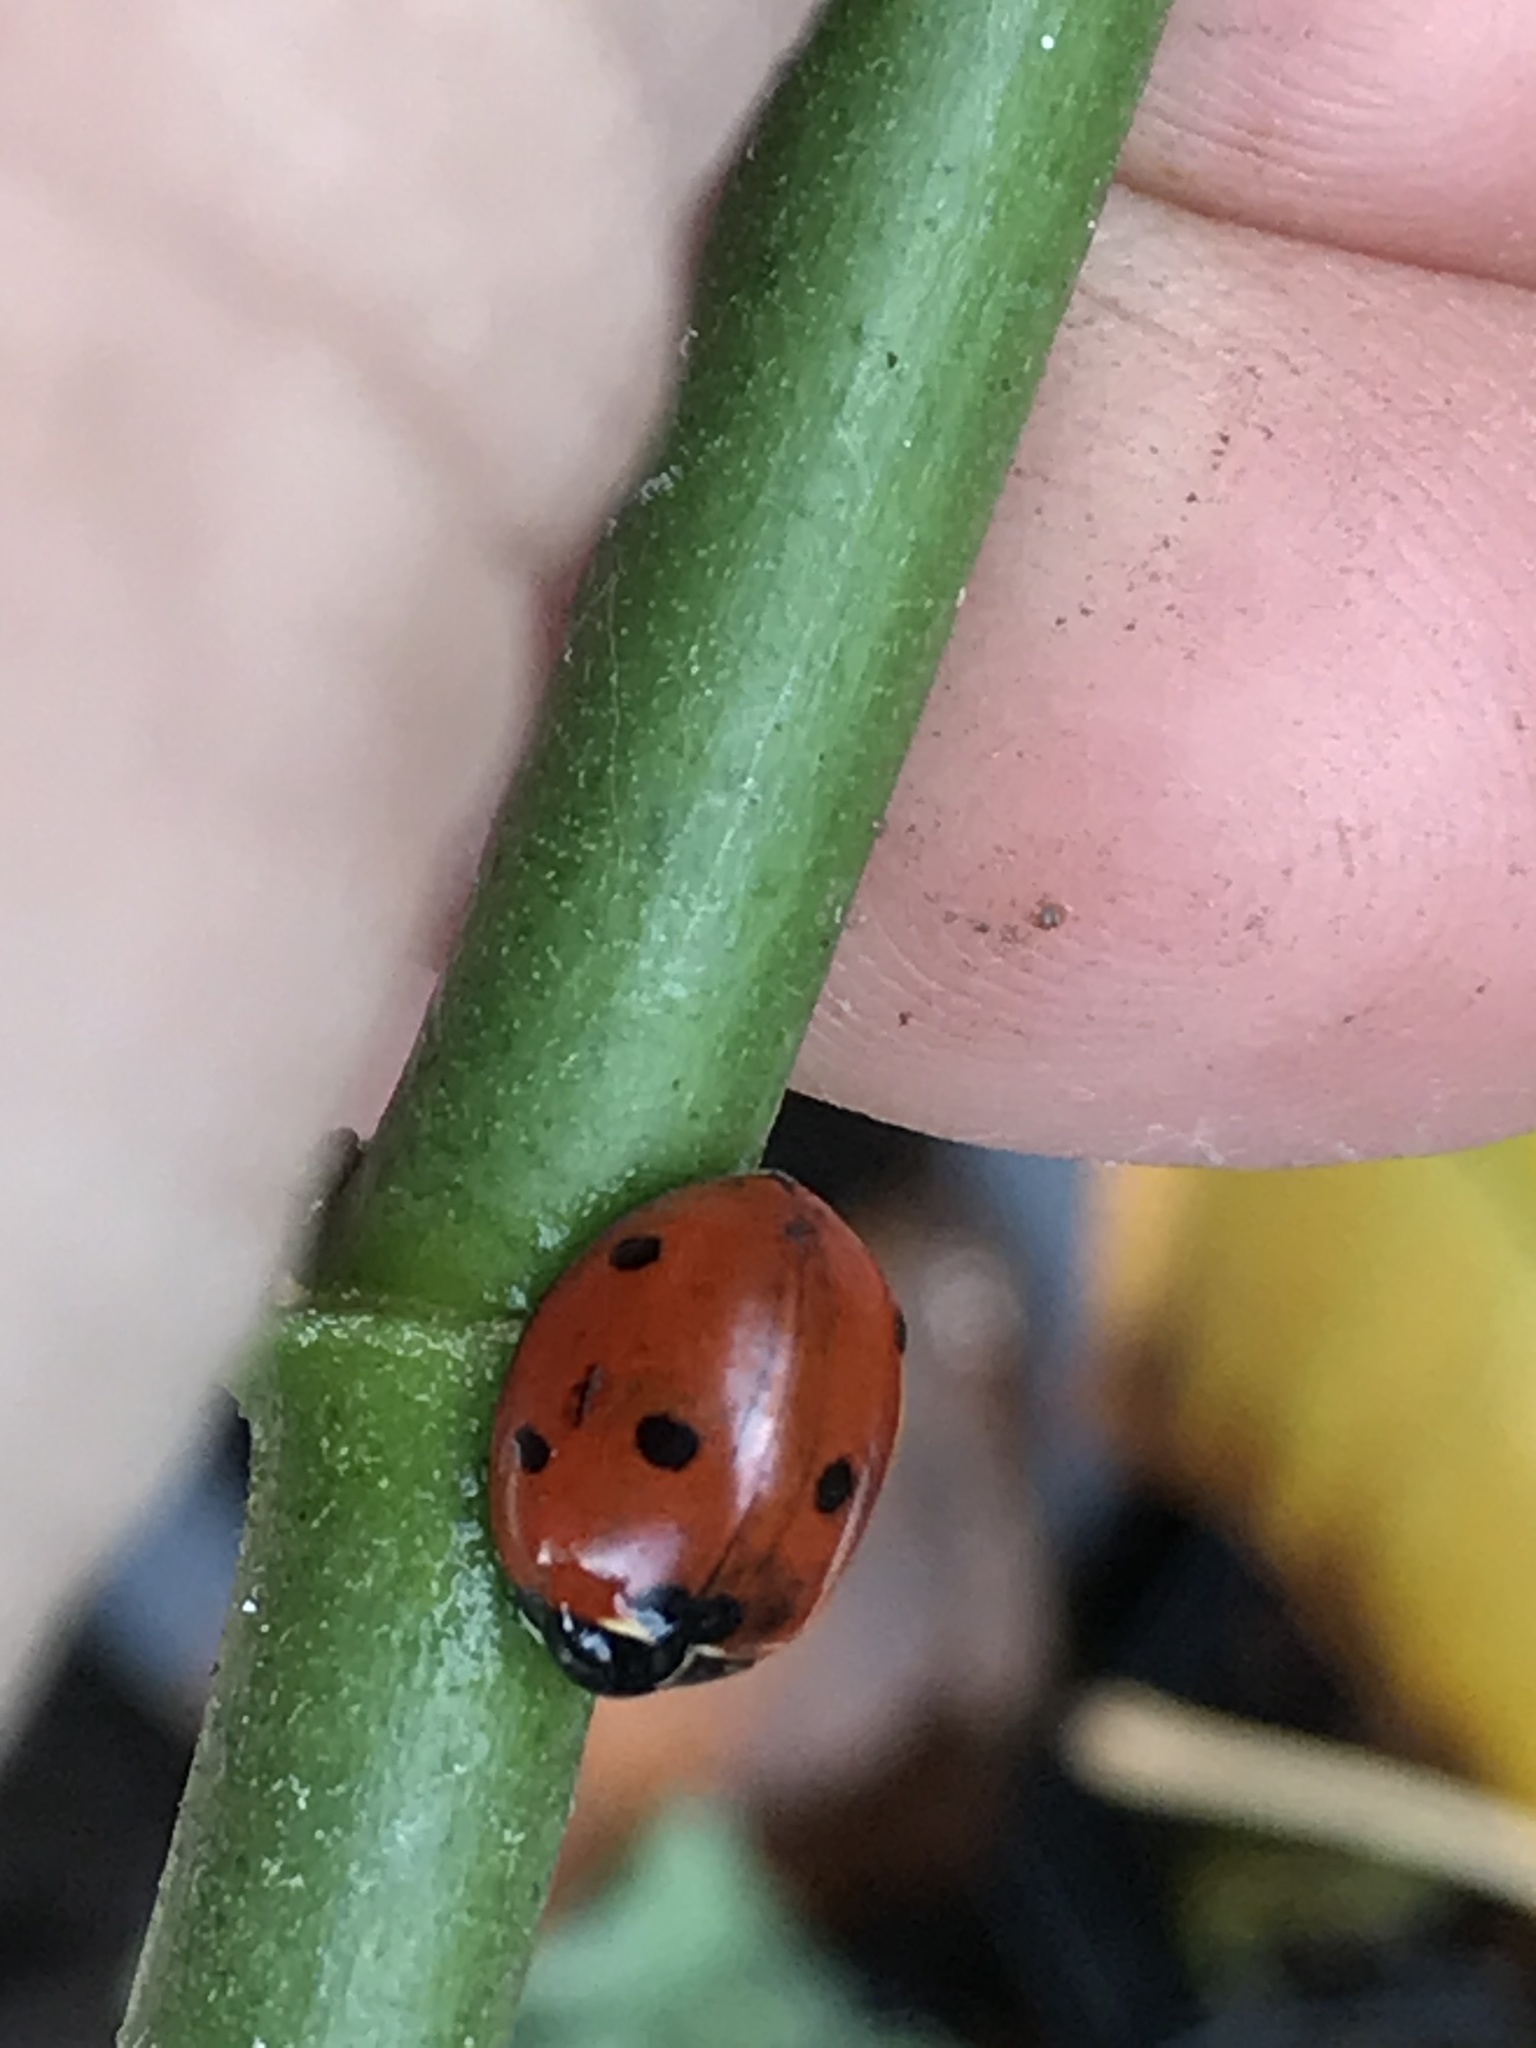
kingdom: Animalia
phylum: Arthropoda
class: Insecta
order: Coleoptera
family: Coccinellidae
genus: Coccinella
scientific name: Coccinella septempunctata
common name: Sevenspotted lady beetle
